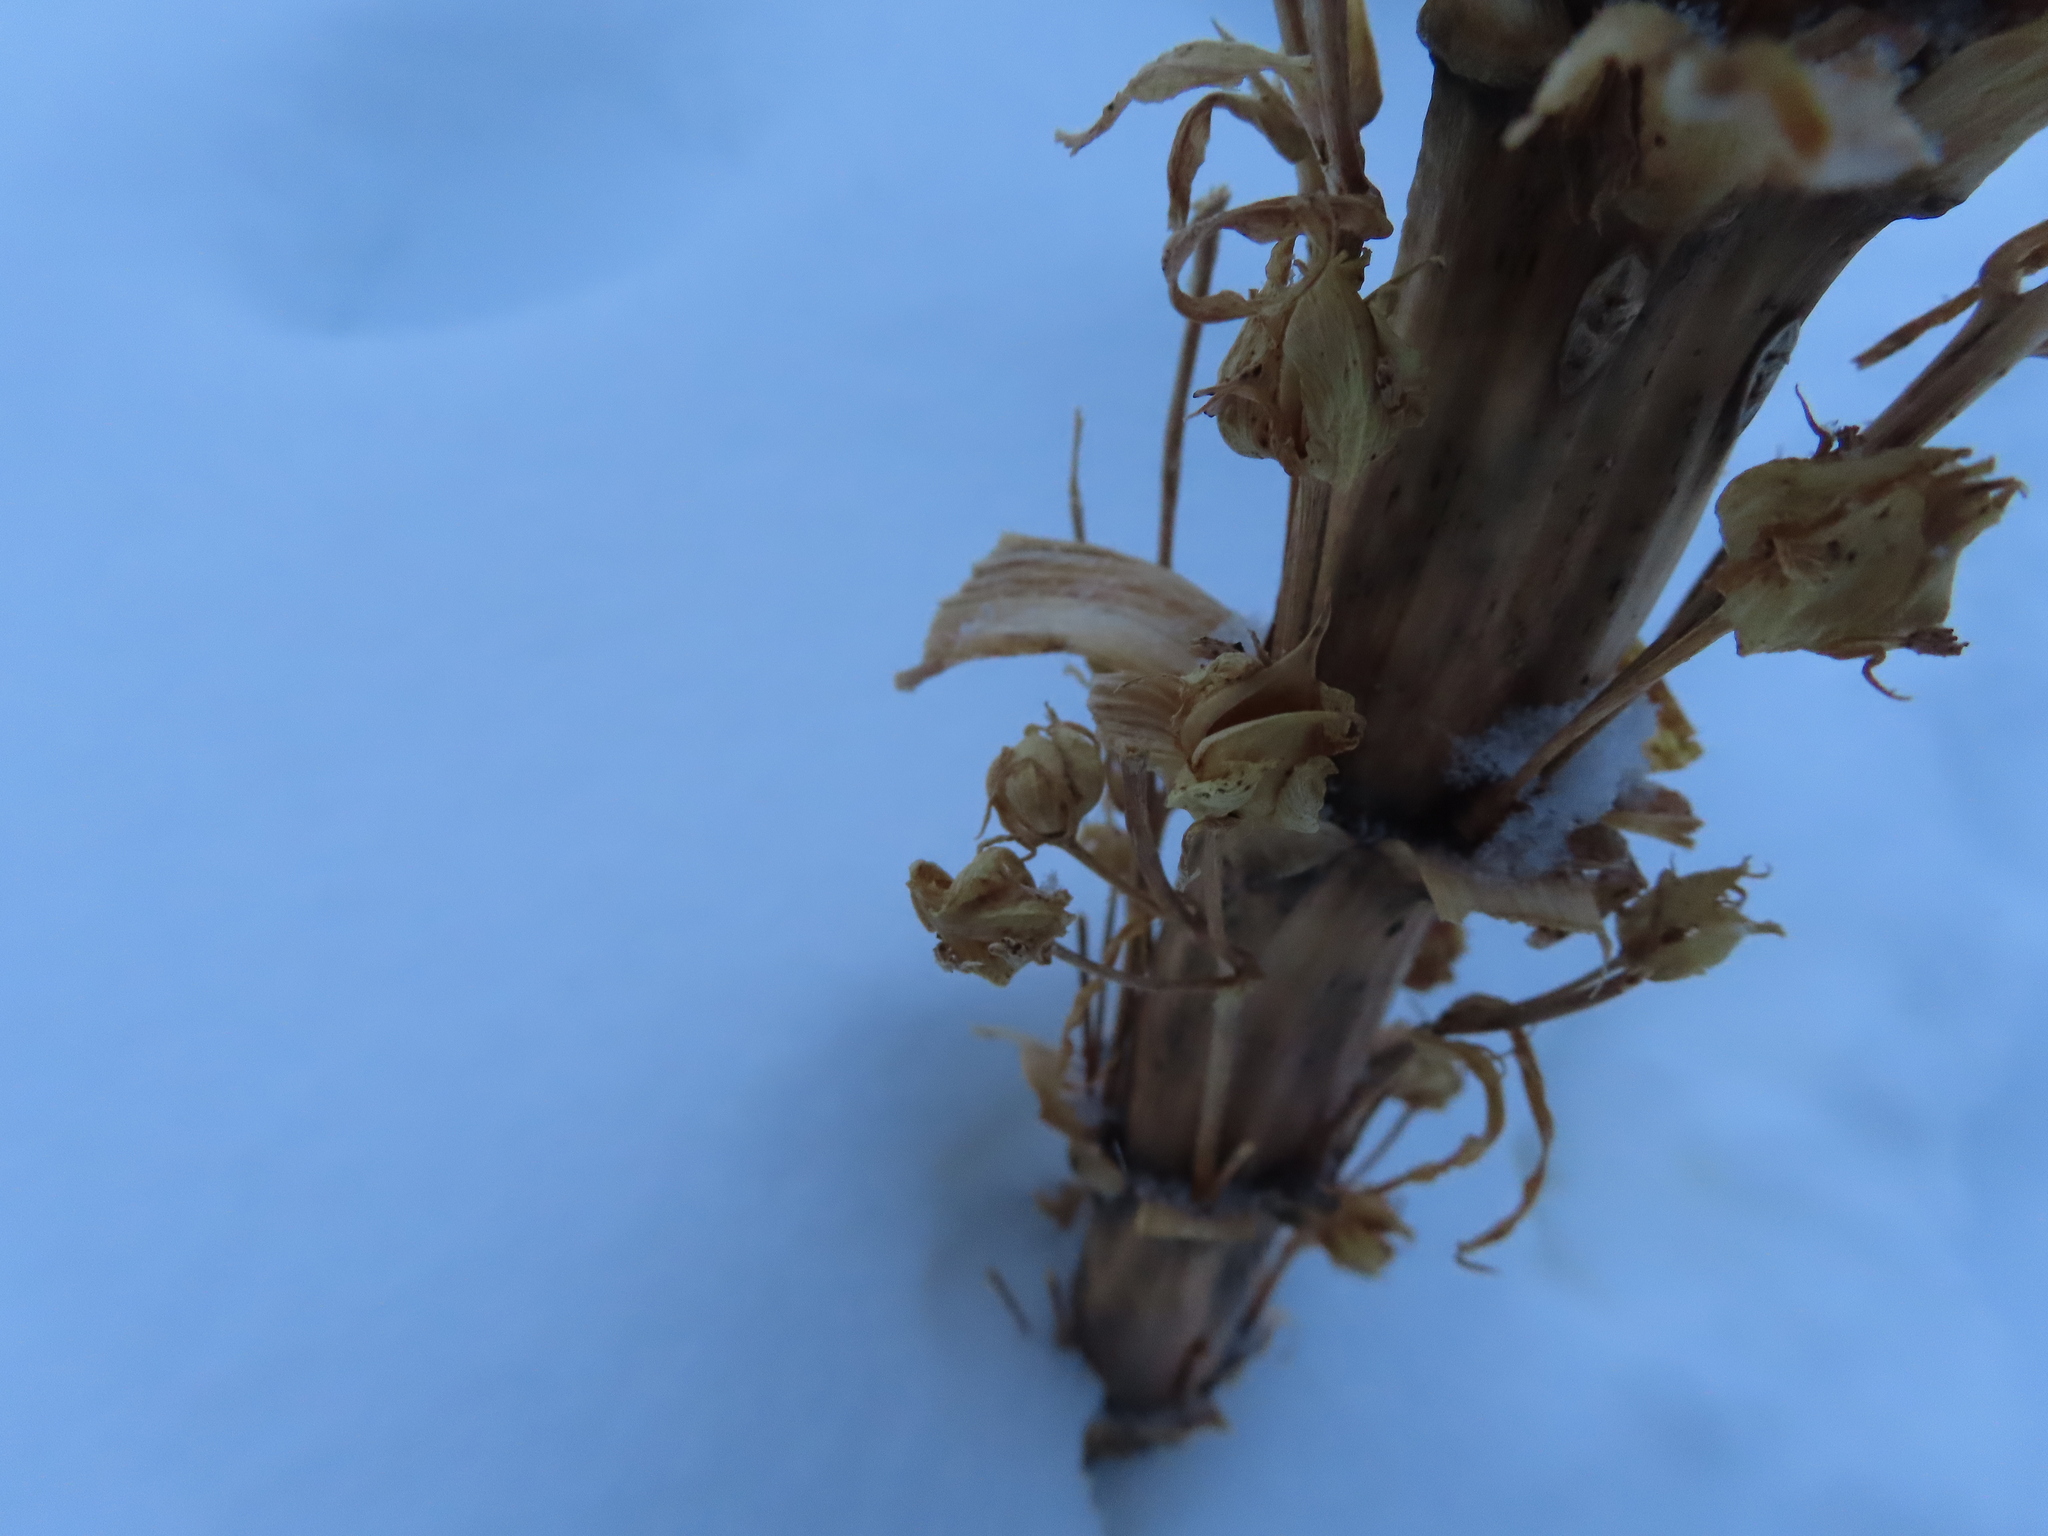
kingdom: Plantae
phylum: Tracheophyta
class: Magnoliopsida
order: Gentianales
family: Gentianaceae
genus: Frasera
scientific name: Frasera speciosa
